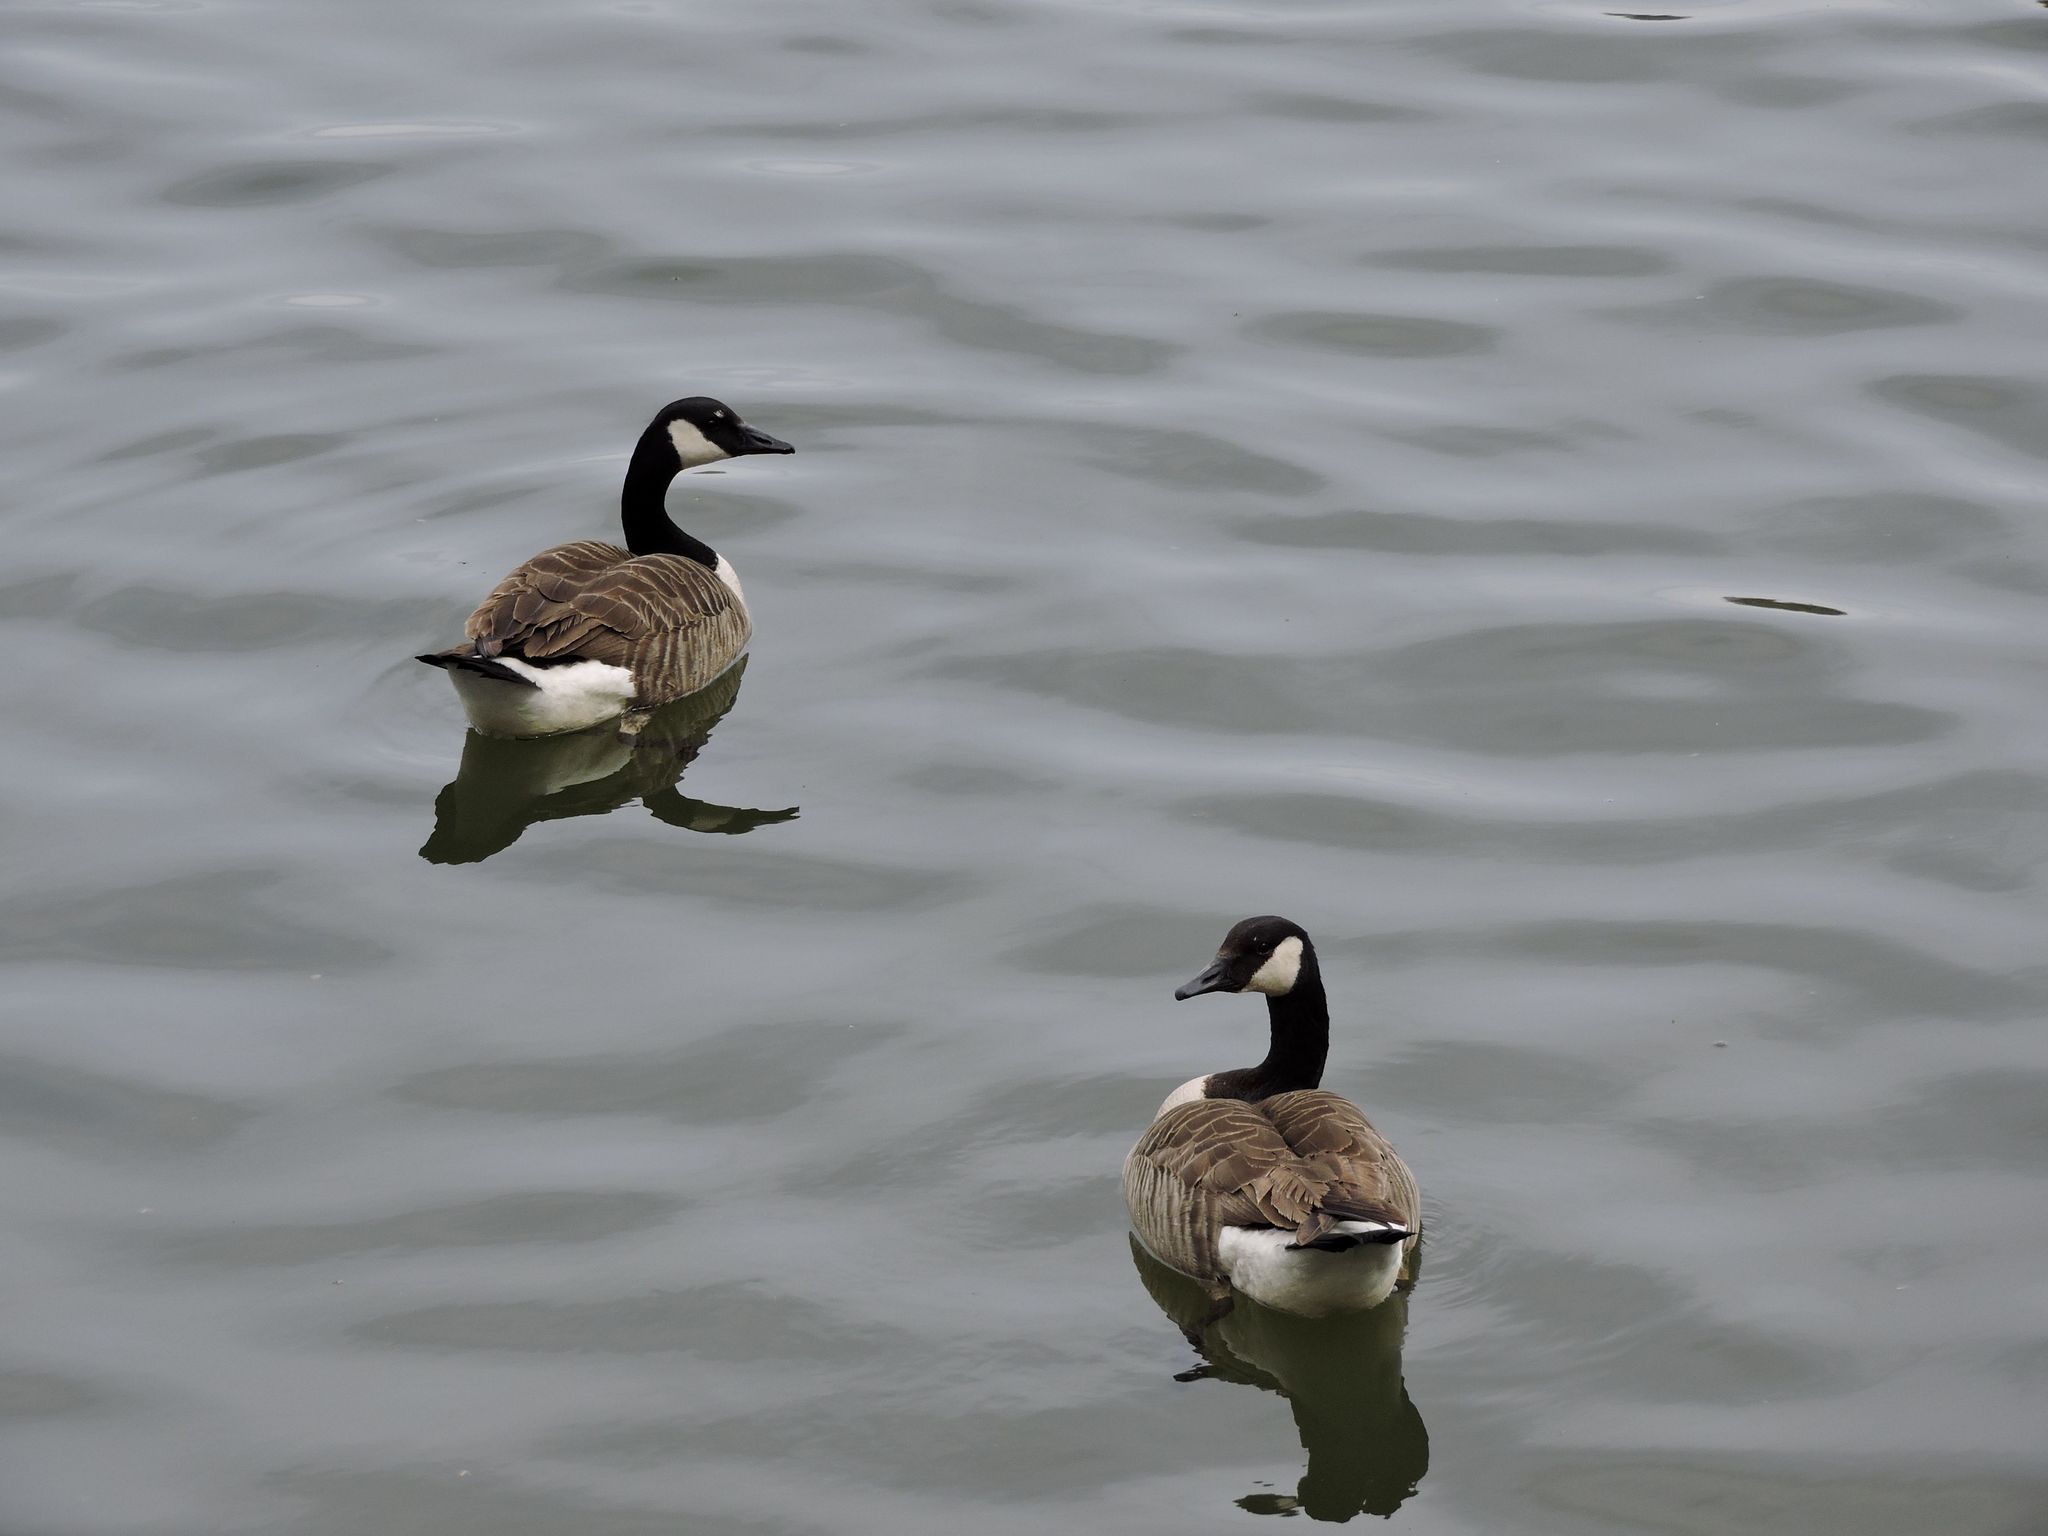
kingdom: Animalia
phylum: Chordata
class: Aves
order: Anseriformes
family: Anatidae
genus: Branta
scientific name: Branta canadensis
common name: Canada goose
